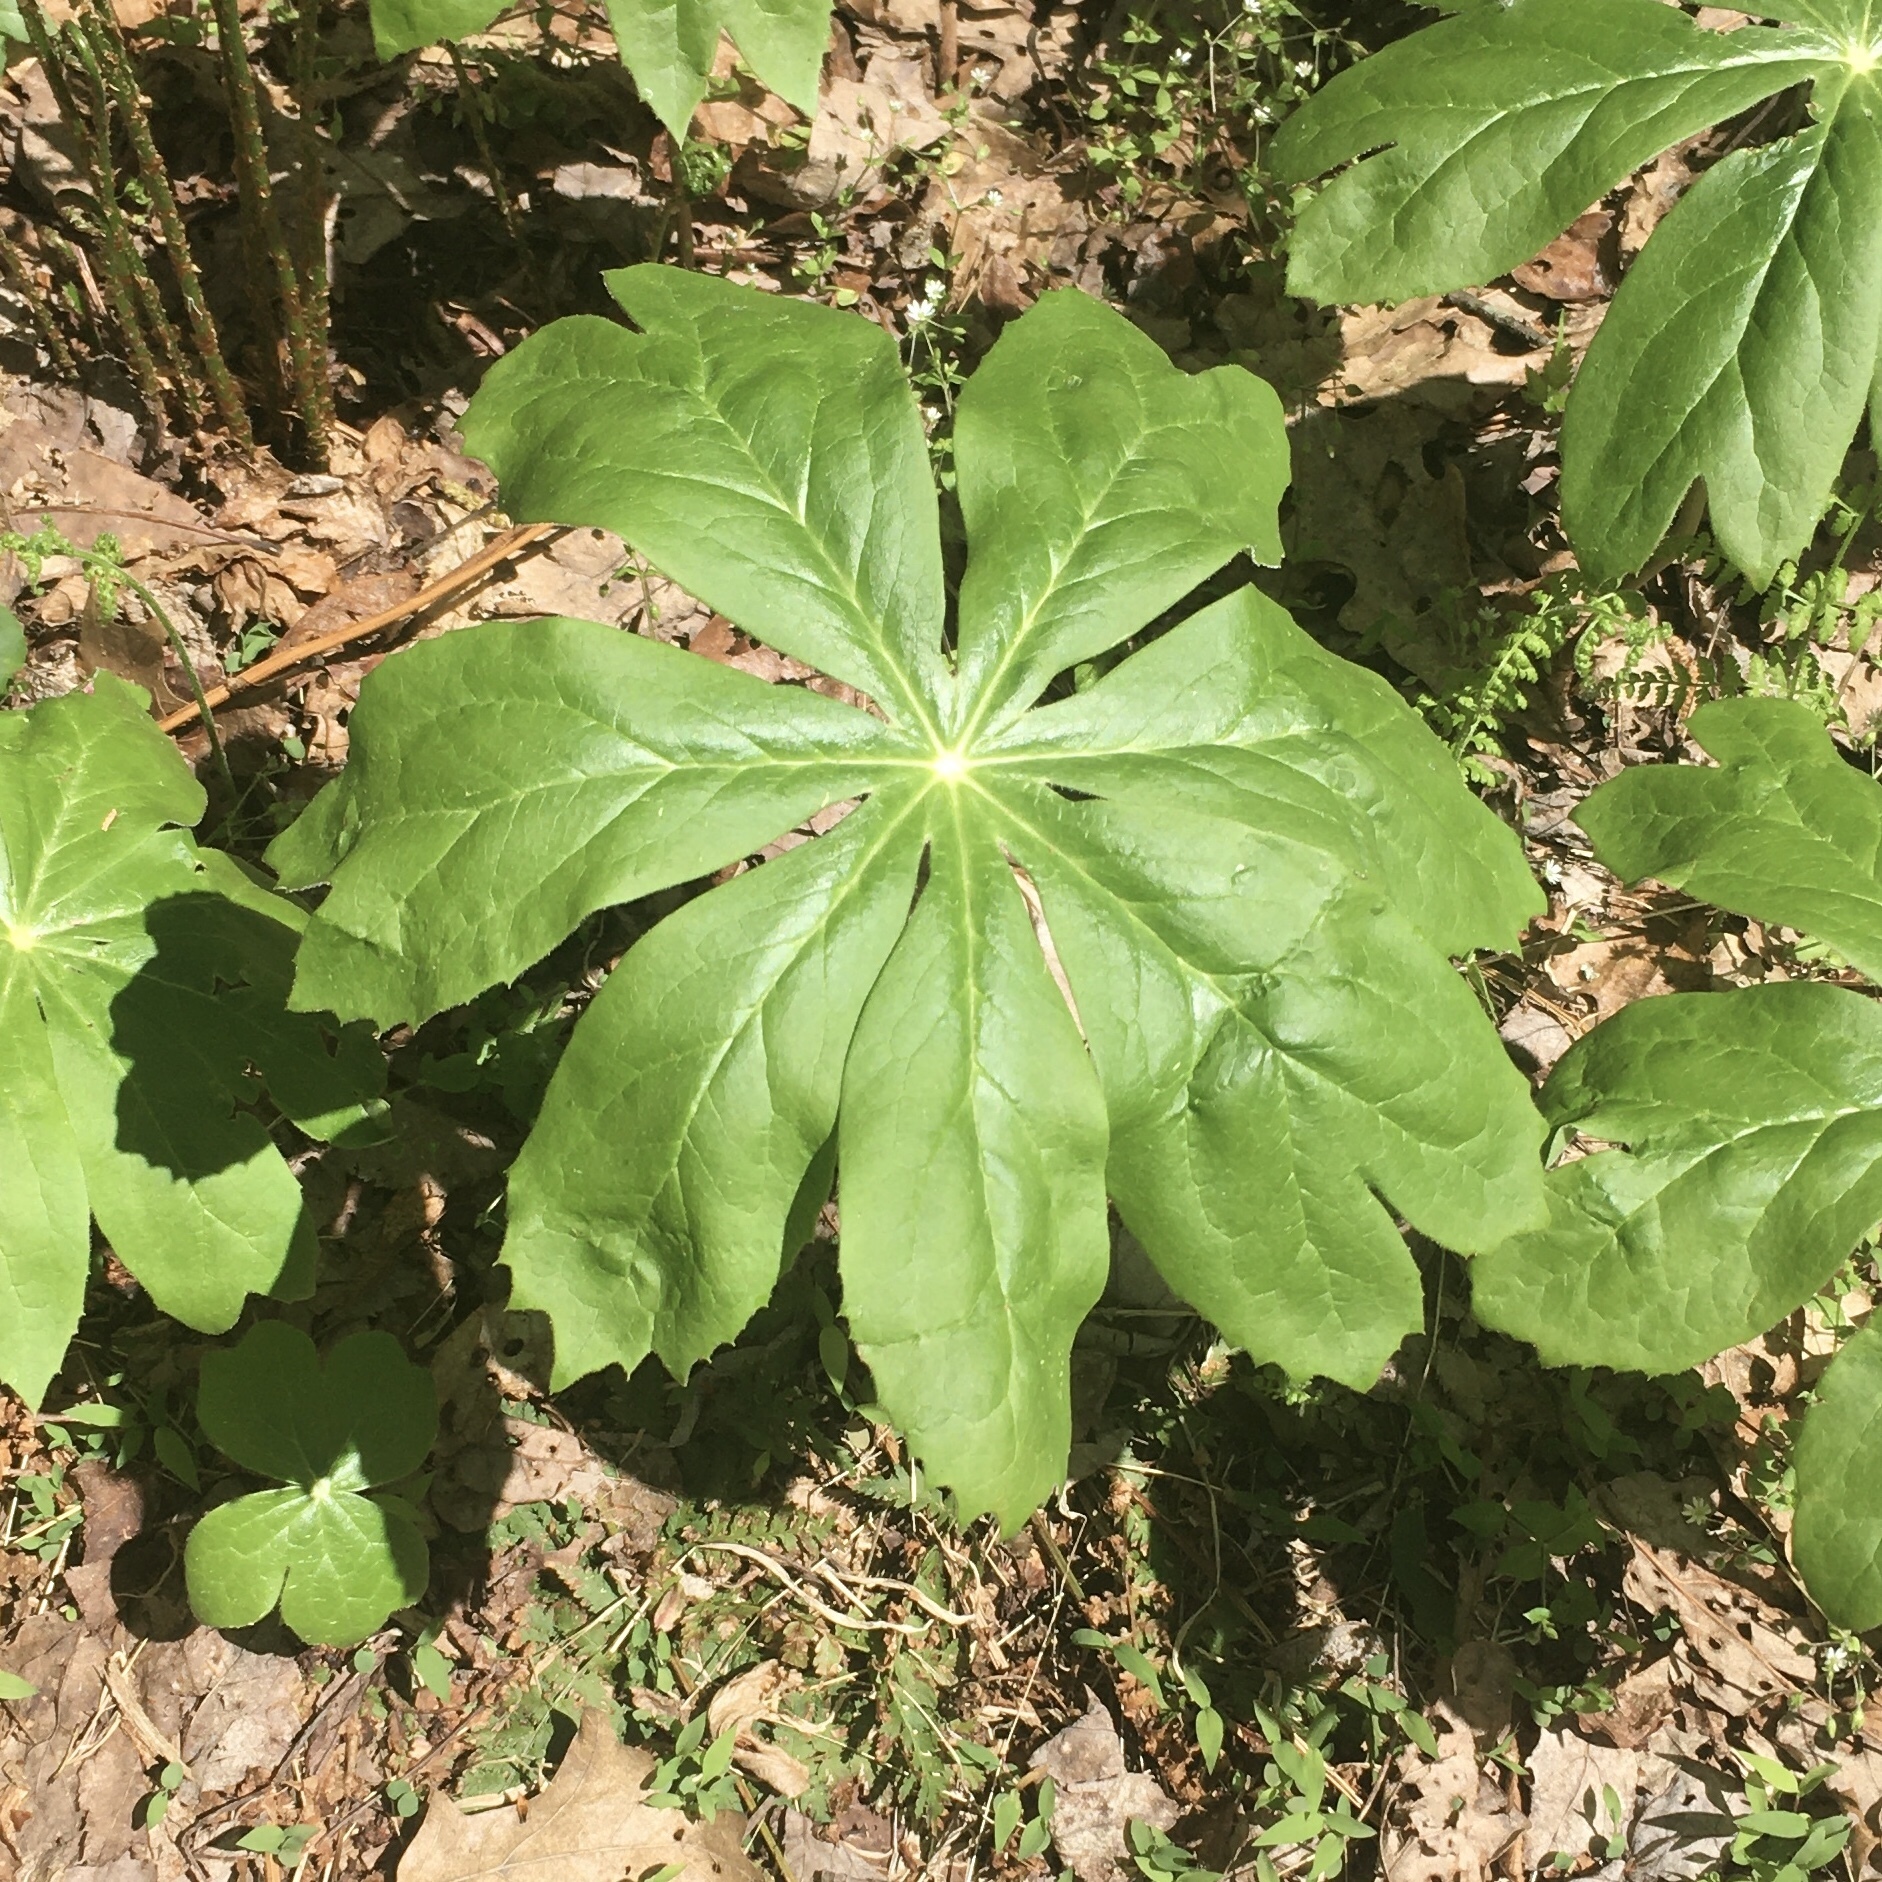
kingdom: Plantae
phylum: Tracheophyta
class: Magnoliopsida
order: Ranunculales
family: Berberidaceae
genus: Podophyllum
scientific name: Podophyllum peltatum
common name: Wild mandrake
